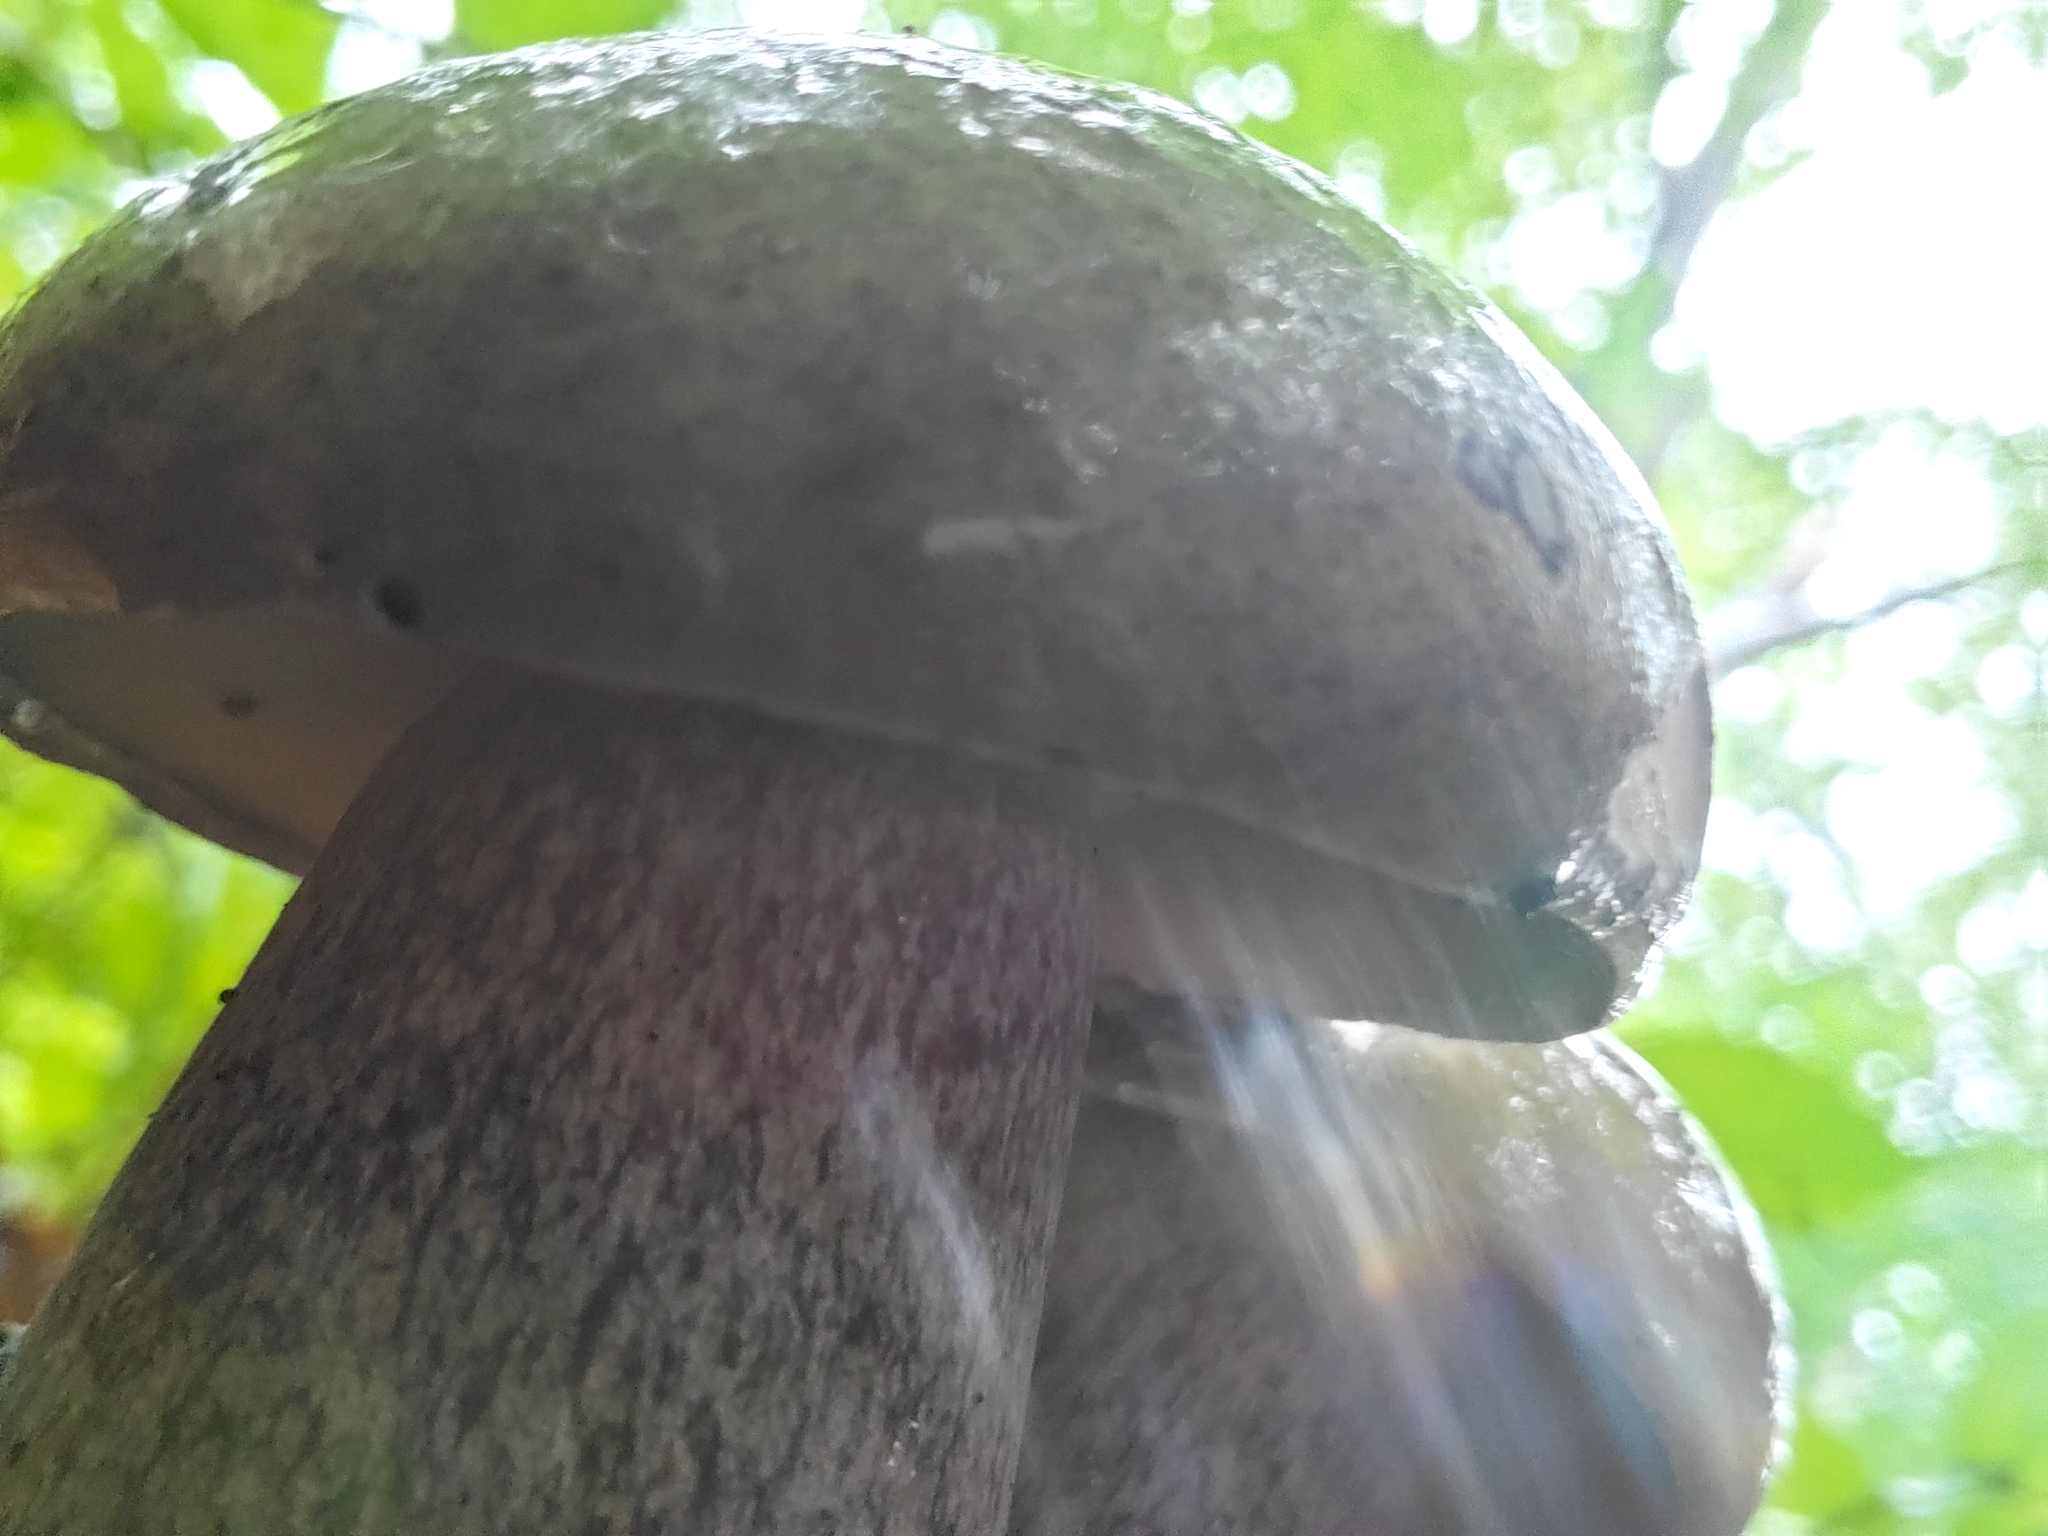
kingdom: Fungi
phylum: Basidiomycota
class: Agaricomycetes
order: Boletales
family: Boletaceae
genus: Tylopilus
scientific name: Tylopilus plumbeoviolaceus
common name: Violet gray bolete
